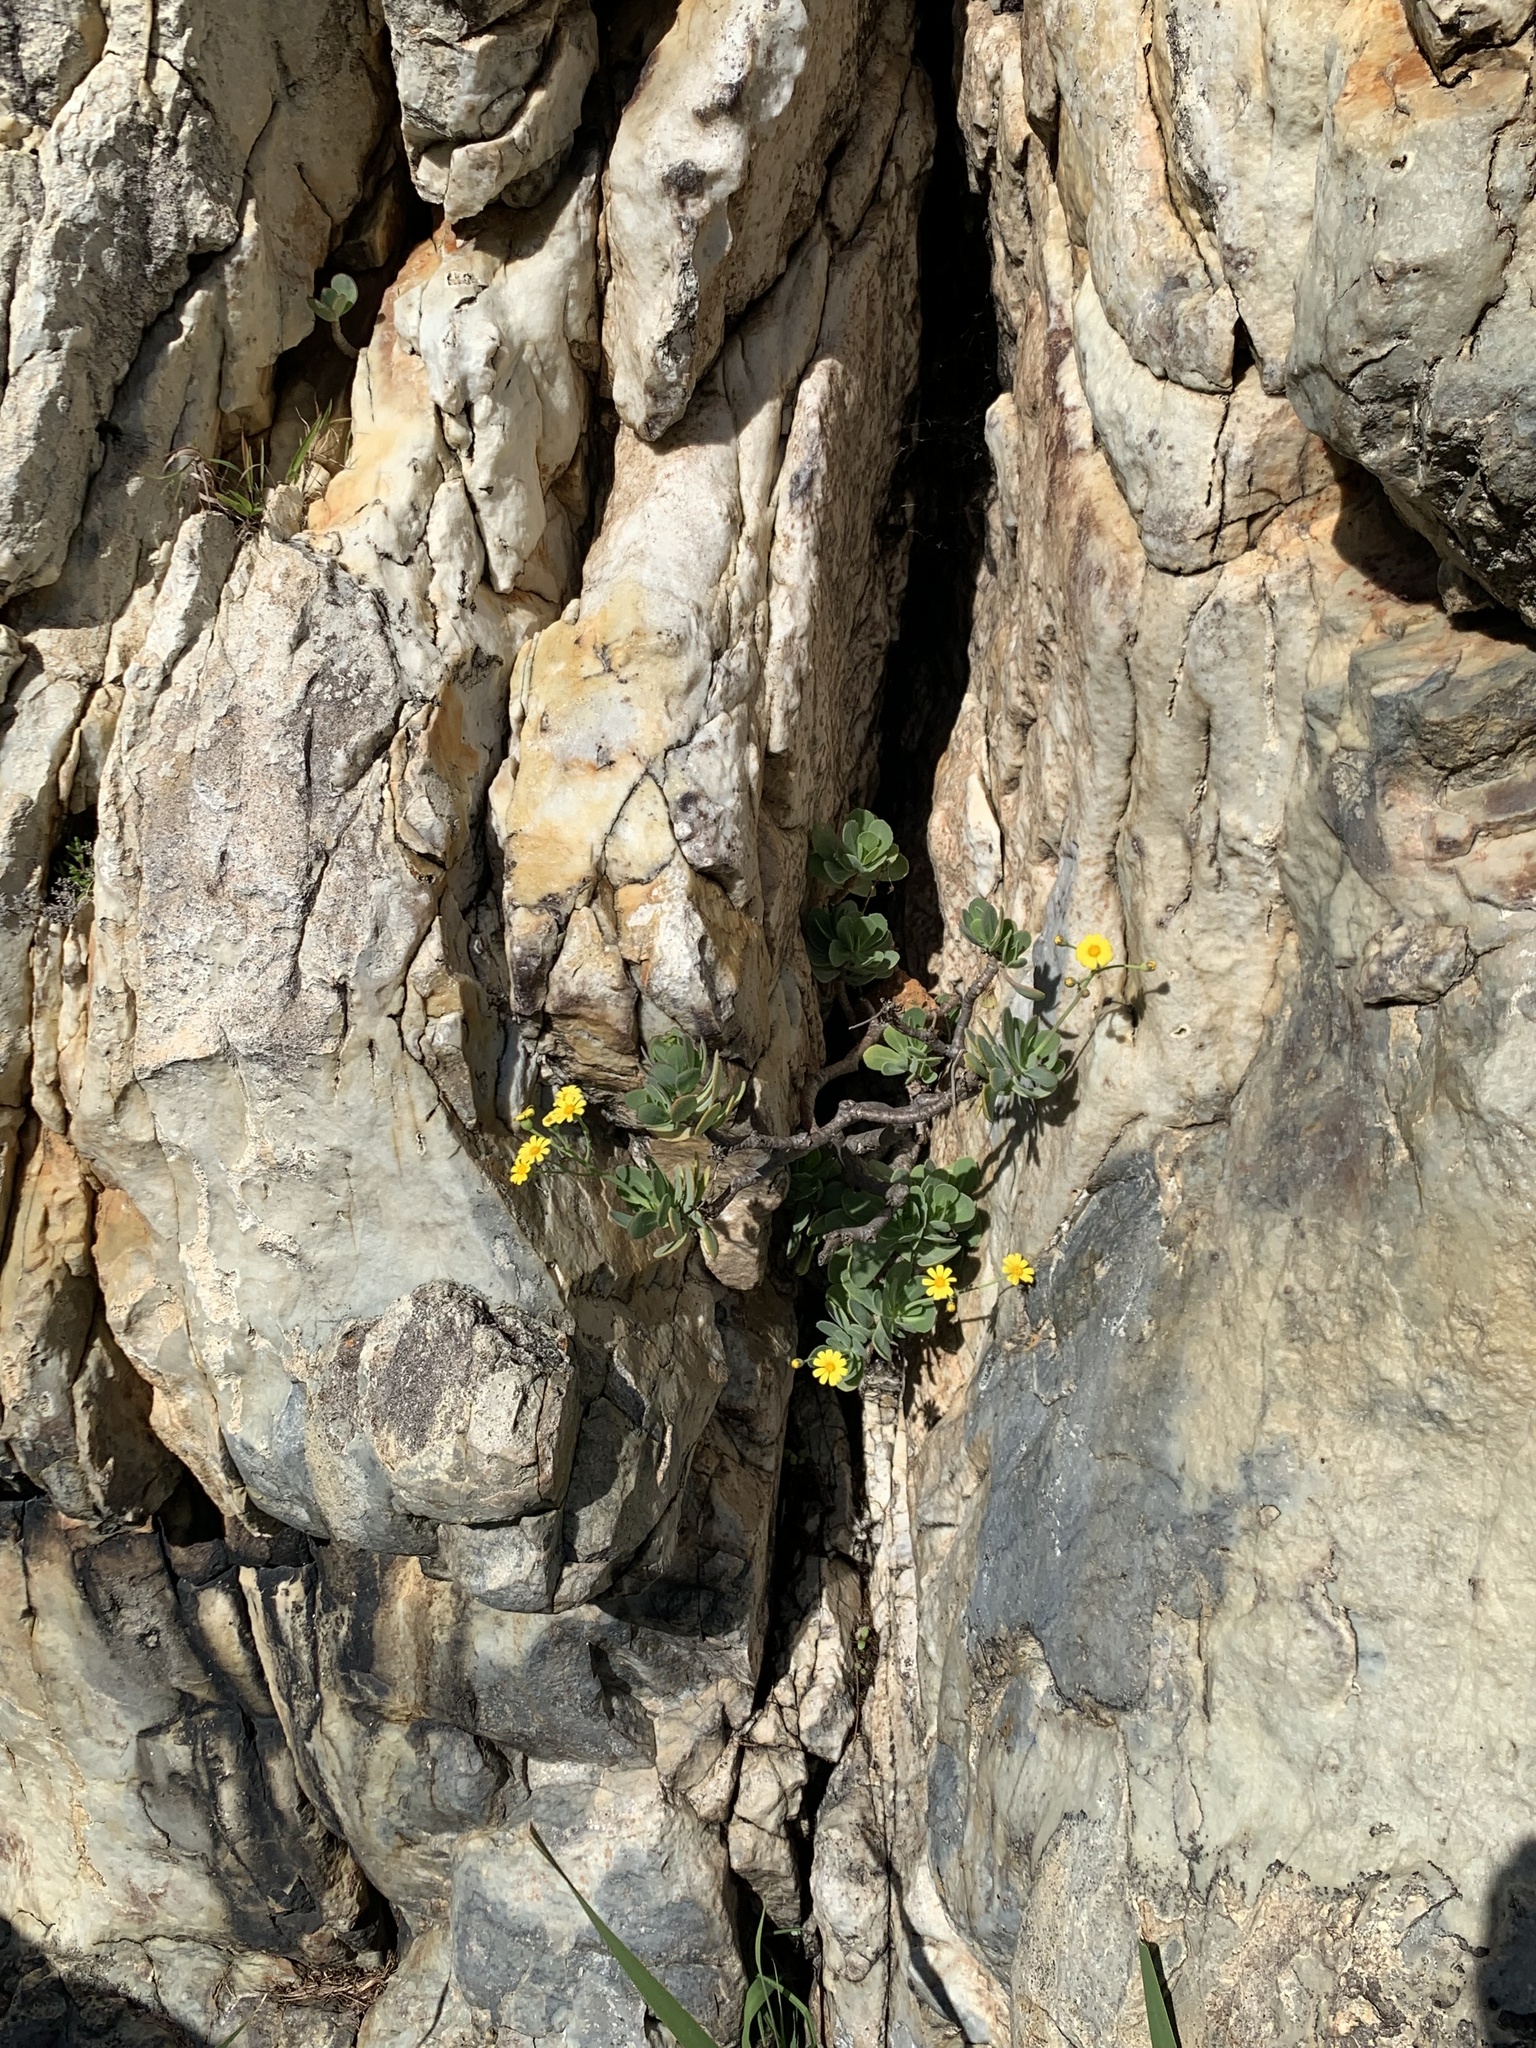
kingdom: Plantae
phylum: Tracheophyta
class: Magnoliopsida
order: Asterales
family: Asteraceae
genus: Othonna
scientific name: Othonna dentata
